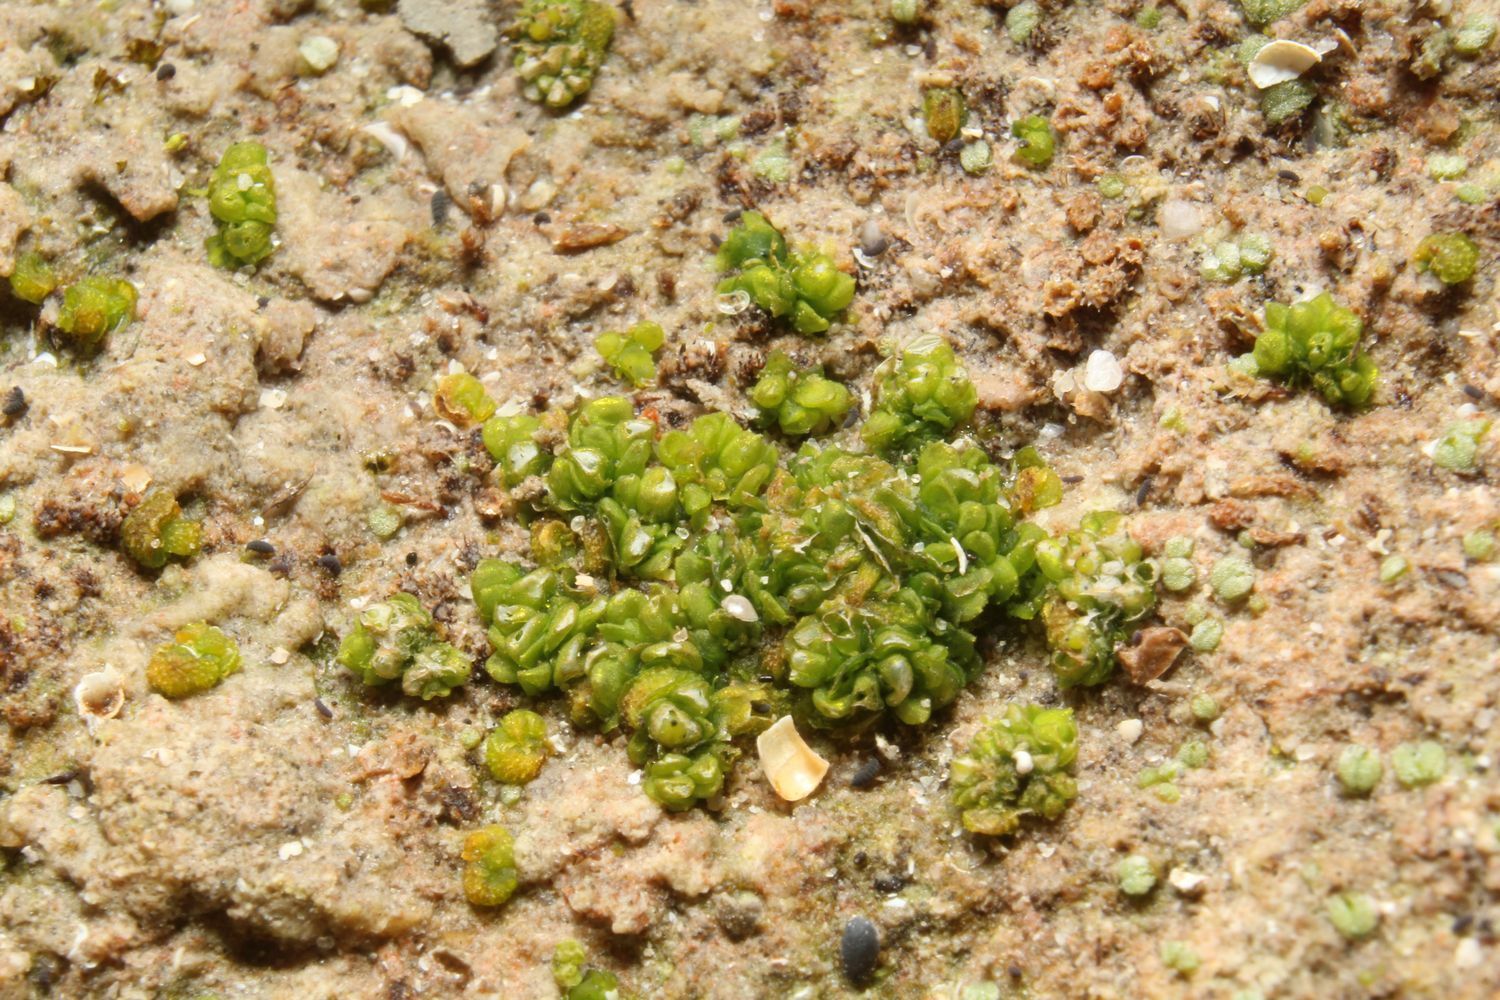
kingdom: Plantae
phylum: Marchantiophyta
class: Marchantiopsida
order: Sphaerocarpales
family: Riellaceae
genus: Austroriella
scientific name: Austroriella salta
